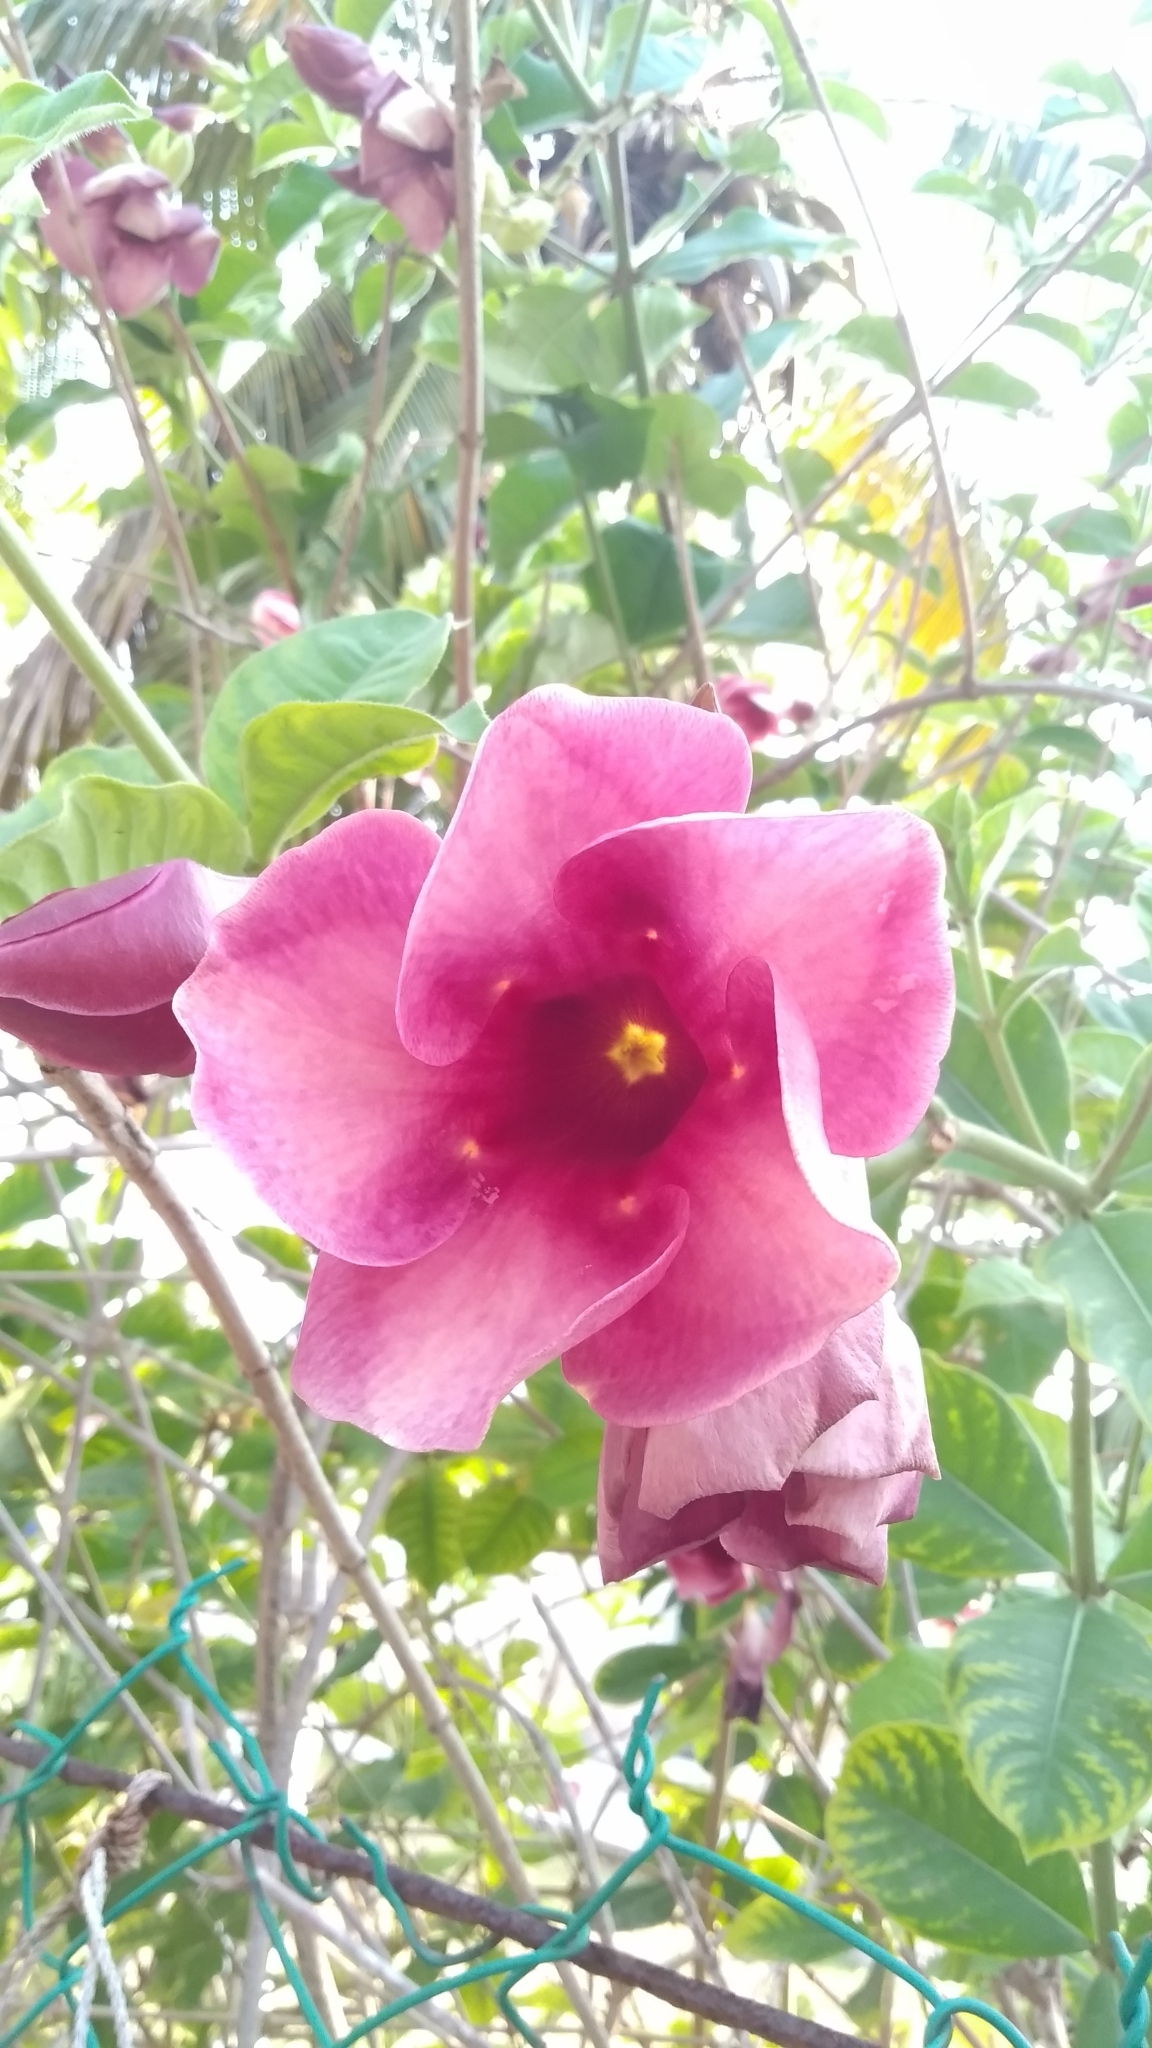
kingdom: Plantae
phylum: Tracheophyta
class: Magnoliopsida
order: Gentianales
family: Apocynaceae
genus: Allamanda
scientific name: Allamanda blanchetii
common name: Purple allamanda
